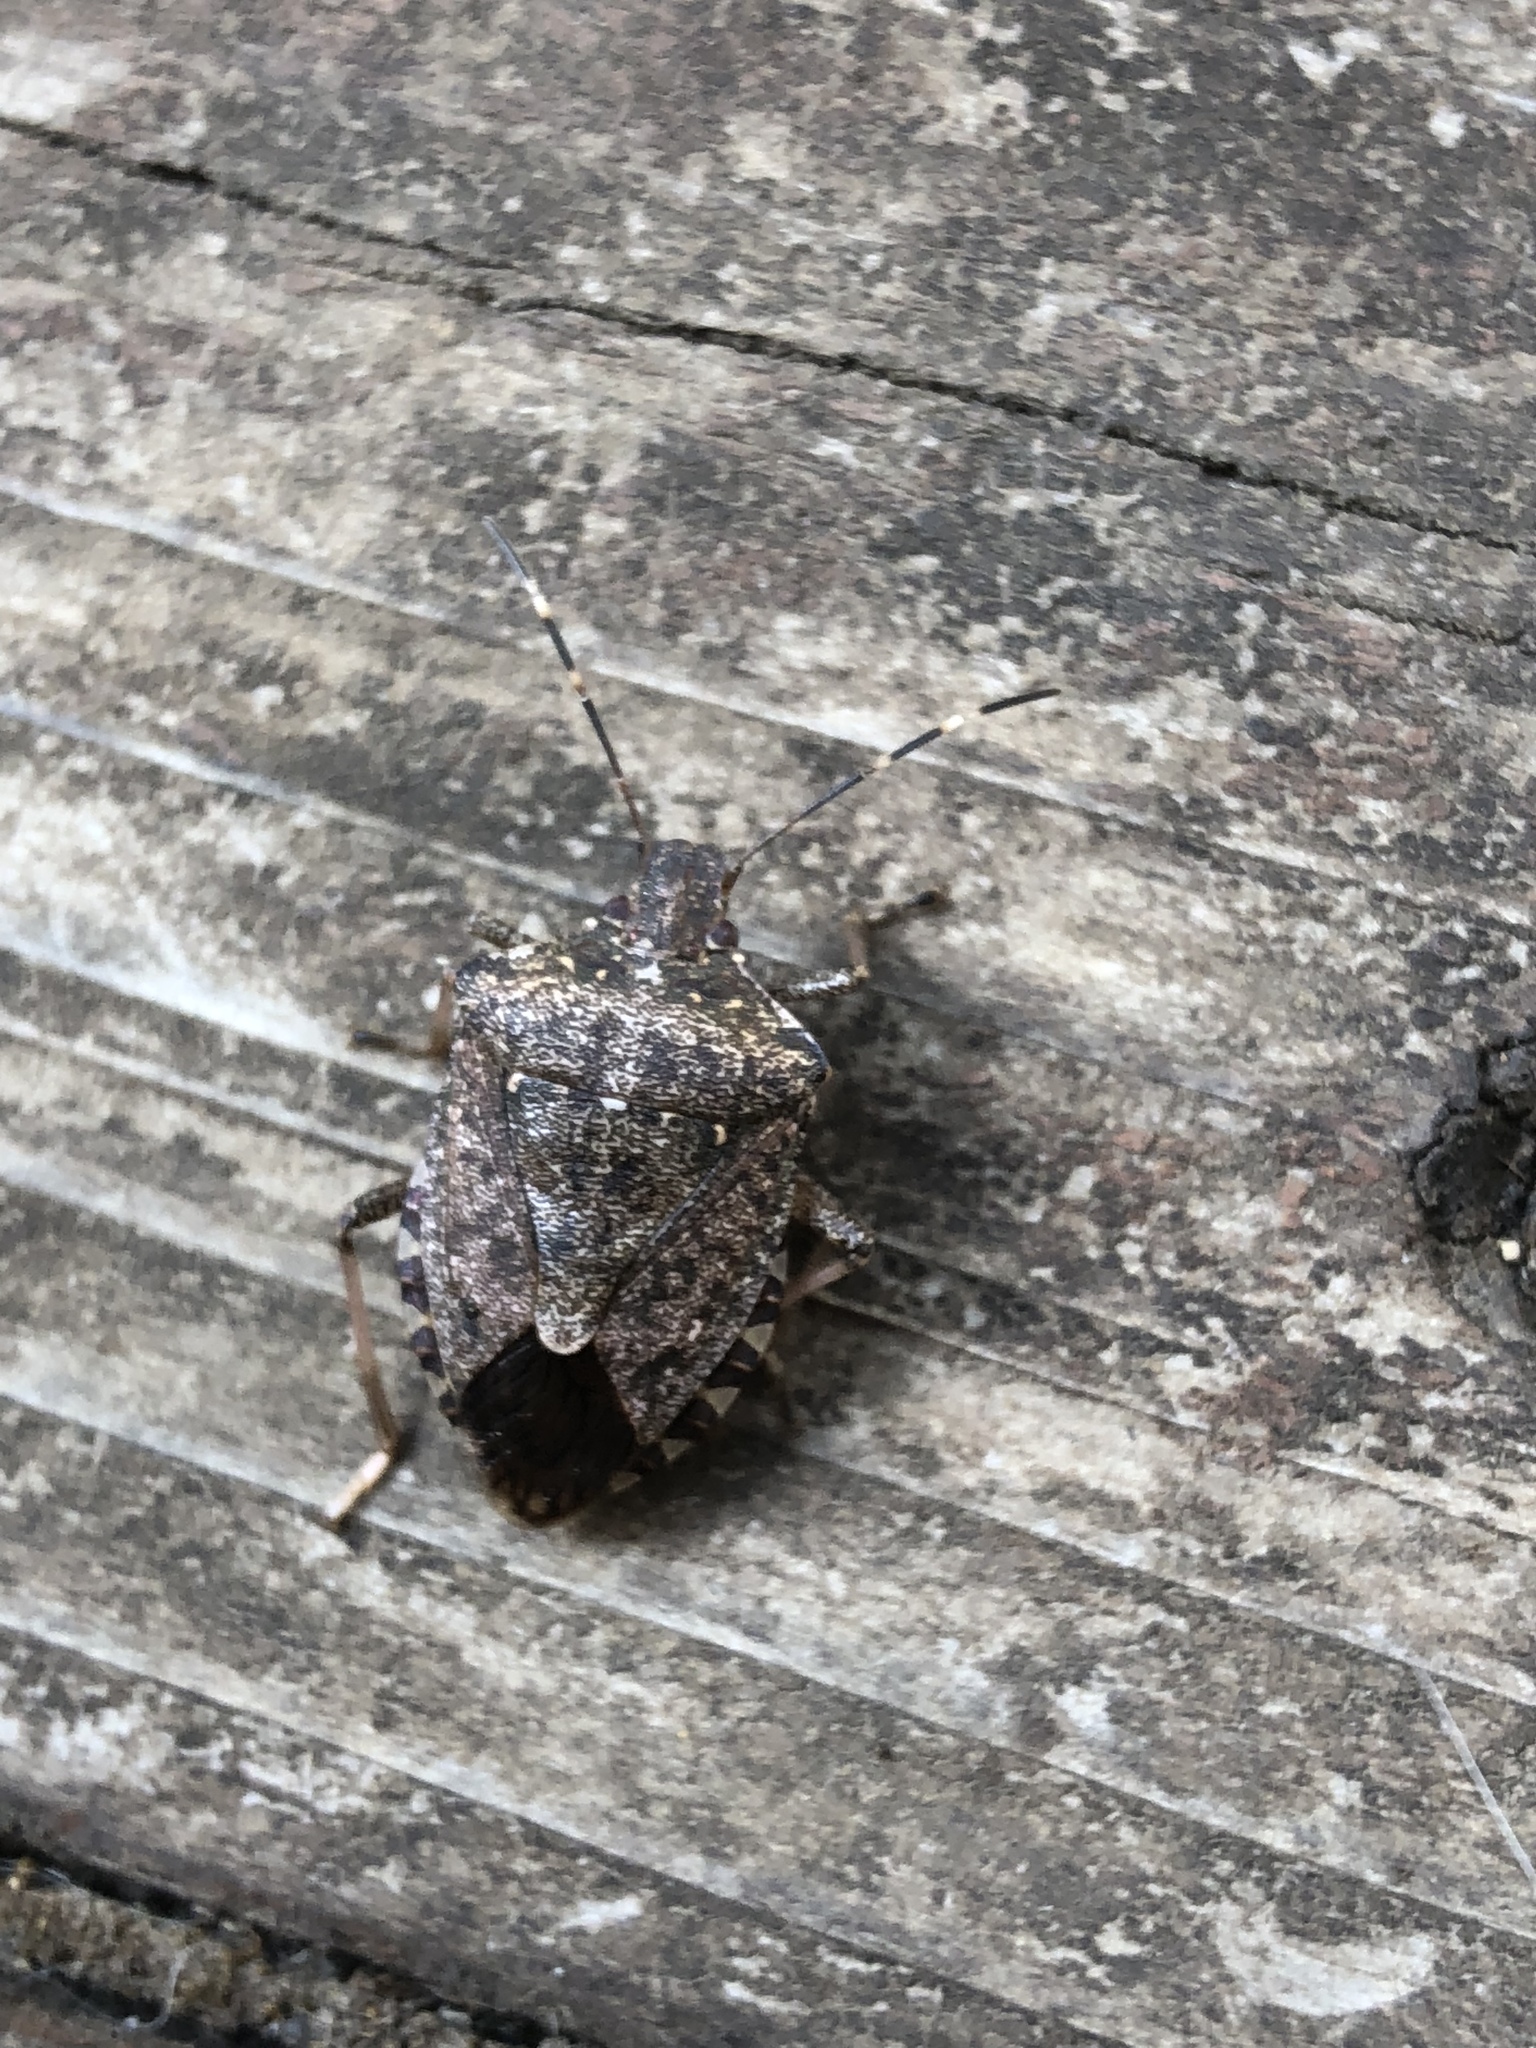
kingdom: Animalia
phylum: Arthropoda
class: Insecta
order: Hemiptera
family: Pentatomidae
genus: Halyomorpha
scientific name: Halyomorpha halys
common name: Brown marmorated stink bug
